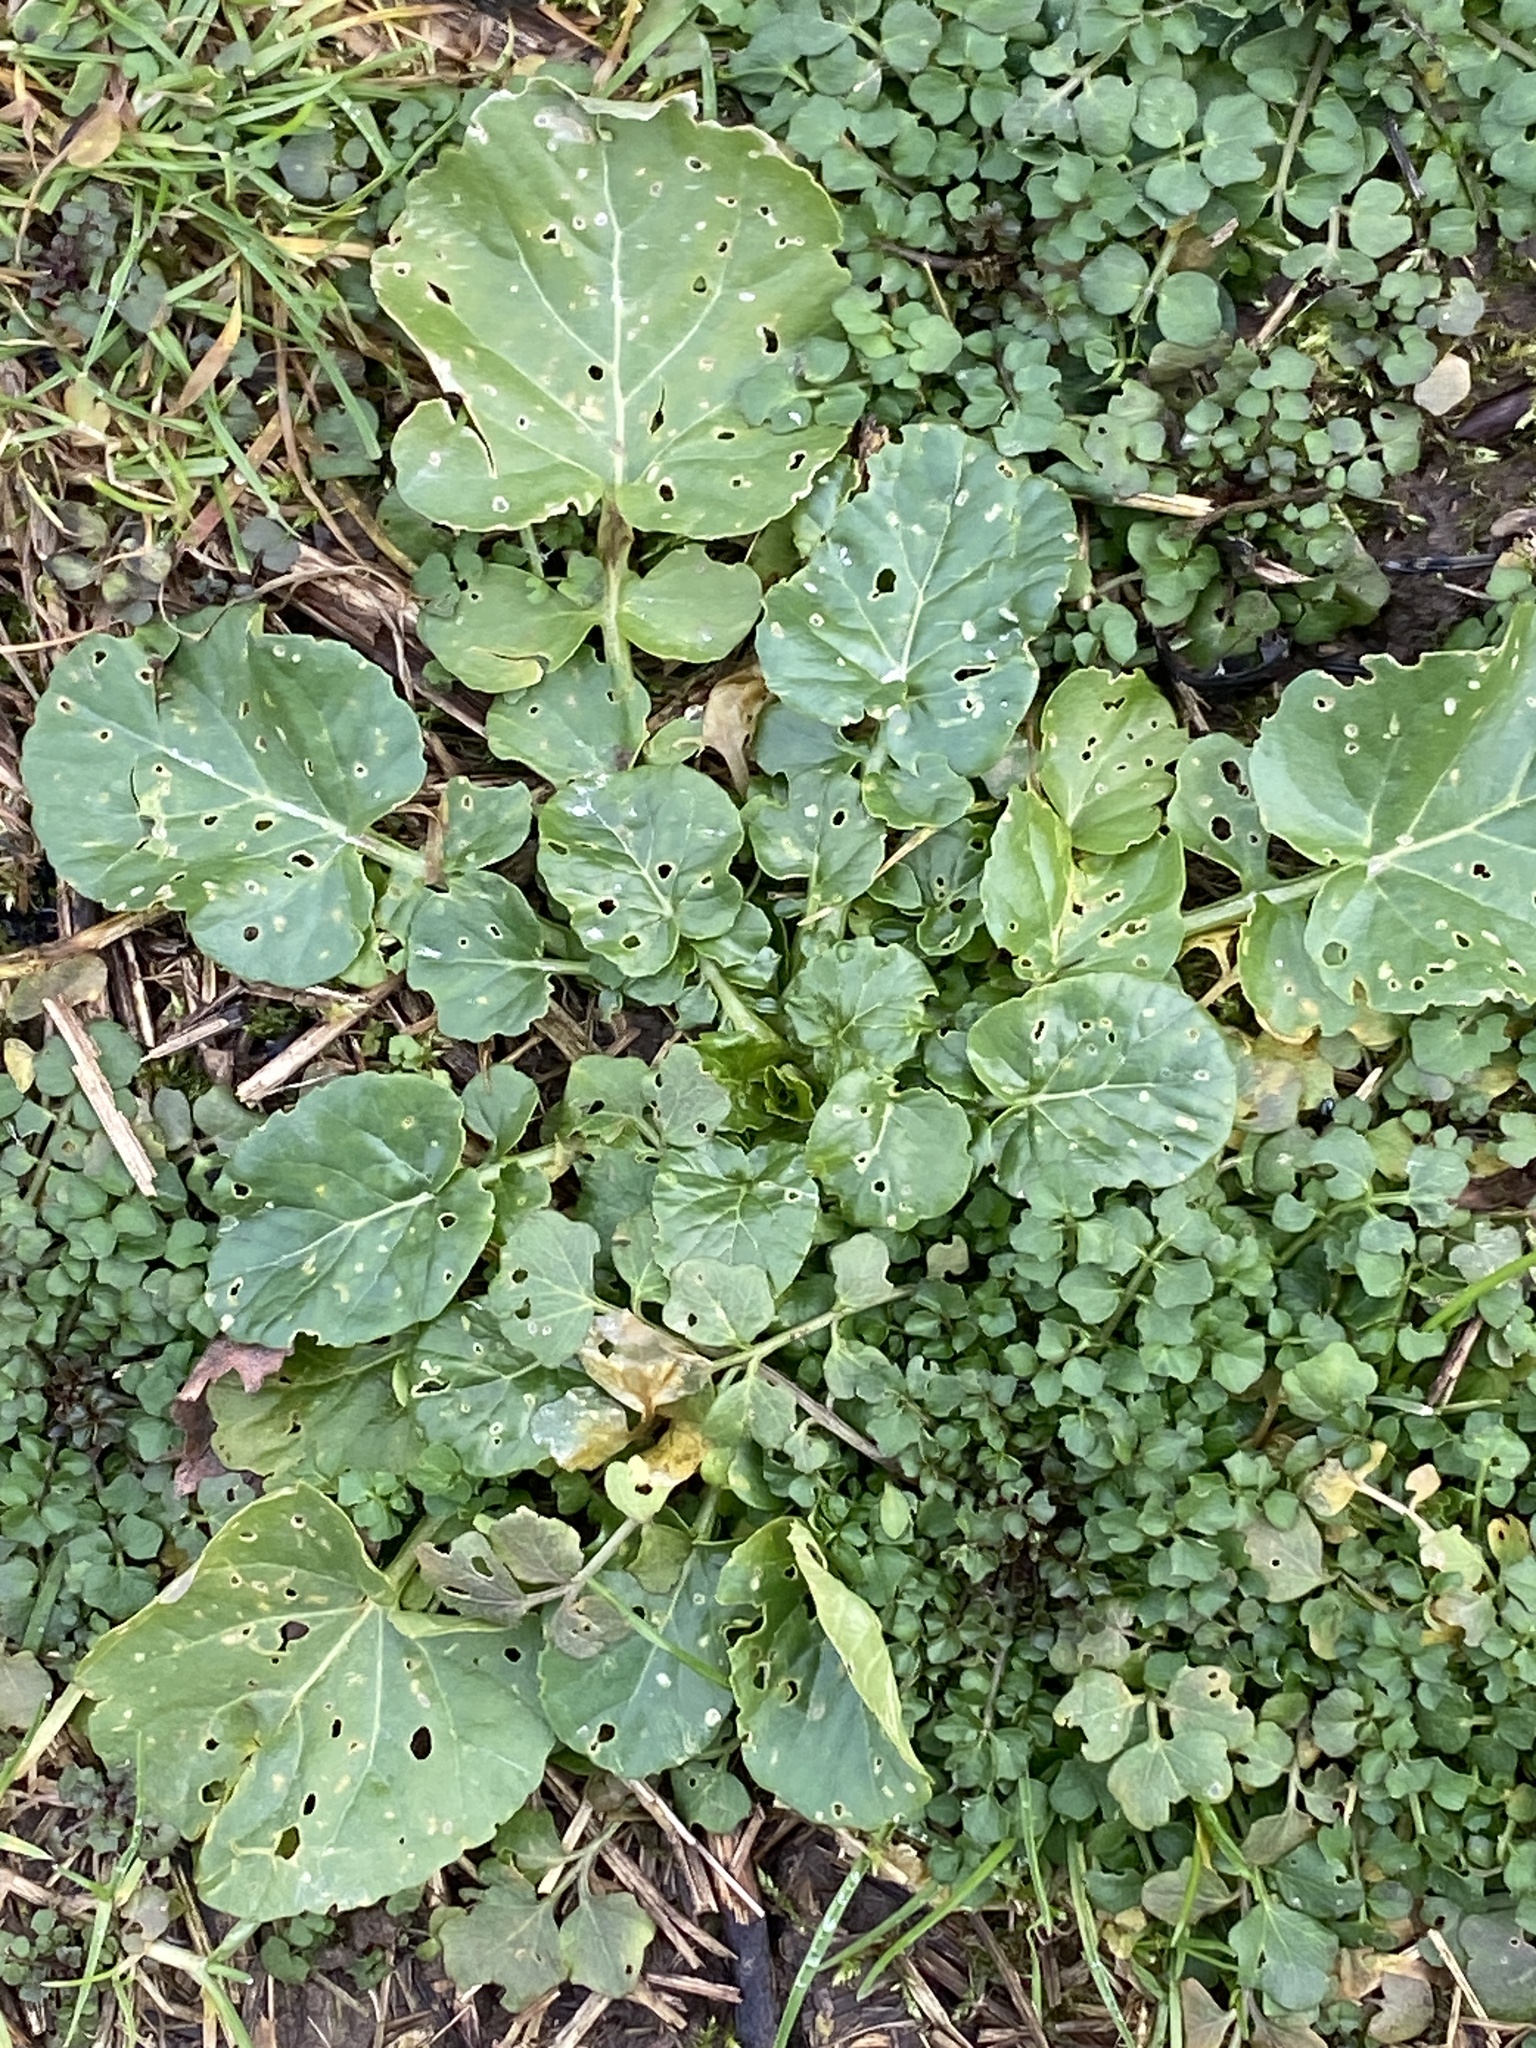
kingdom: Plantae
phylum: Tracheophyta
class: Magnoliopsida
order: Brassicales
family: Brassicaceae
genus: Barbarea
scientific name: Barbarea vulgaris
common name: Cressy-greens
